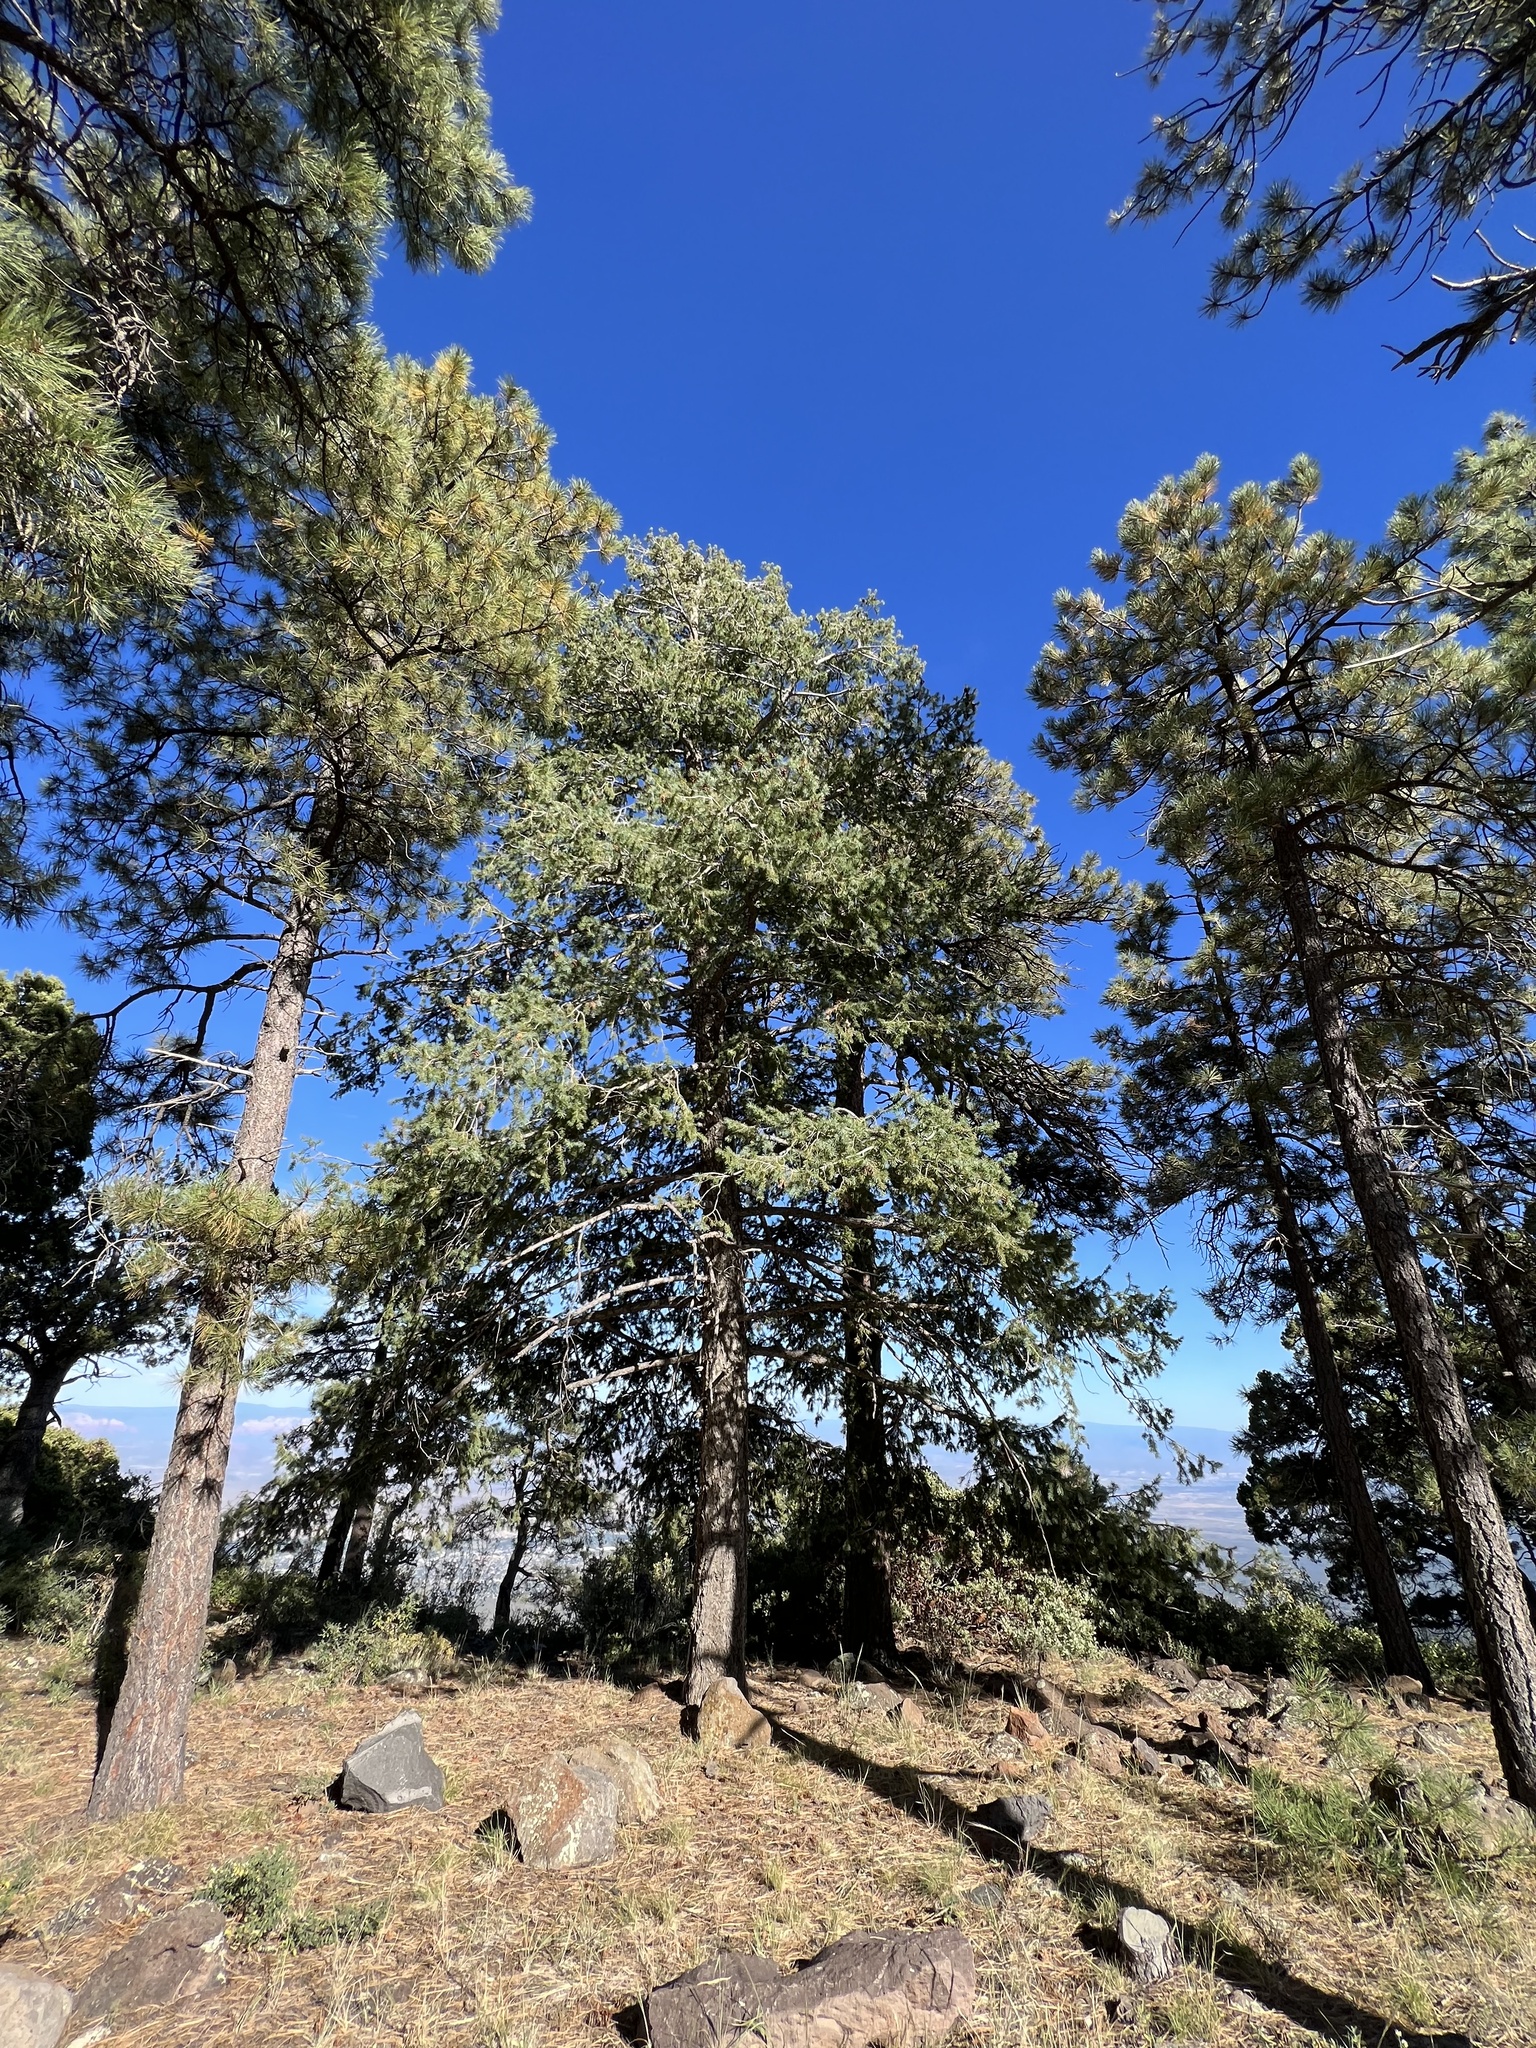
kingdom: Plantae
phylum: Tracheophyta
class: Pinopsida
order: Pinales
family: Pinaceae
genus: Pseudotsuga
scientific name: Pseudotsuga menziesii
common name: Douglas fir
